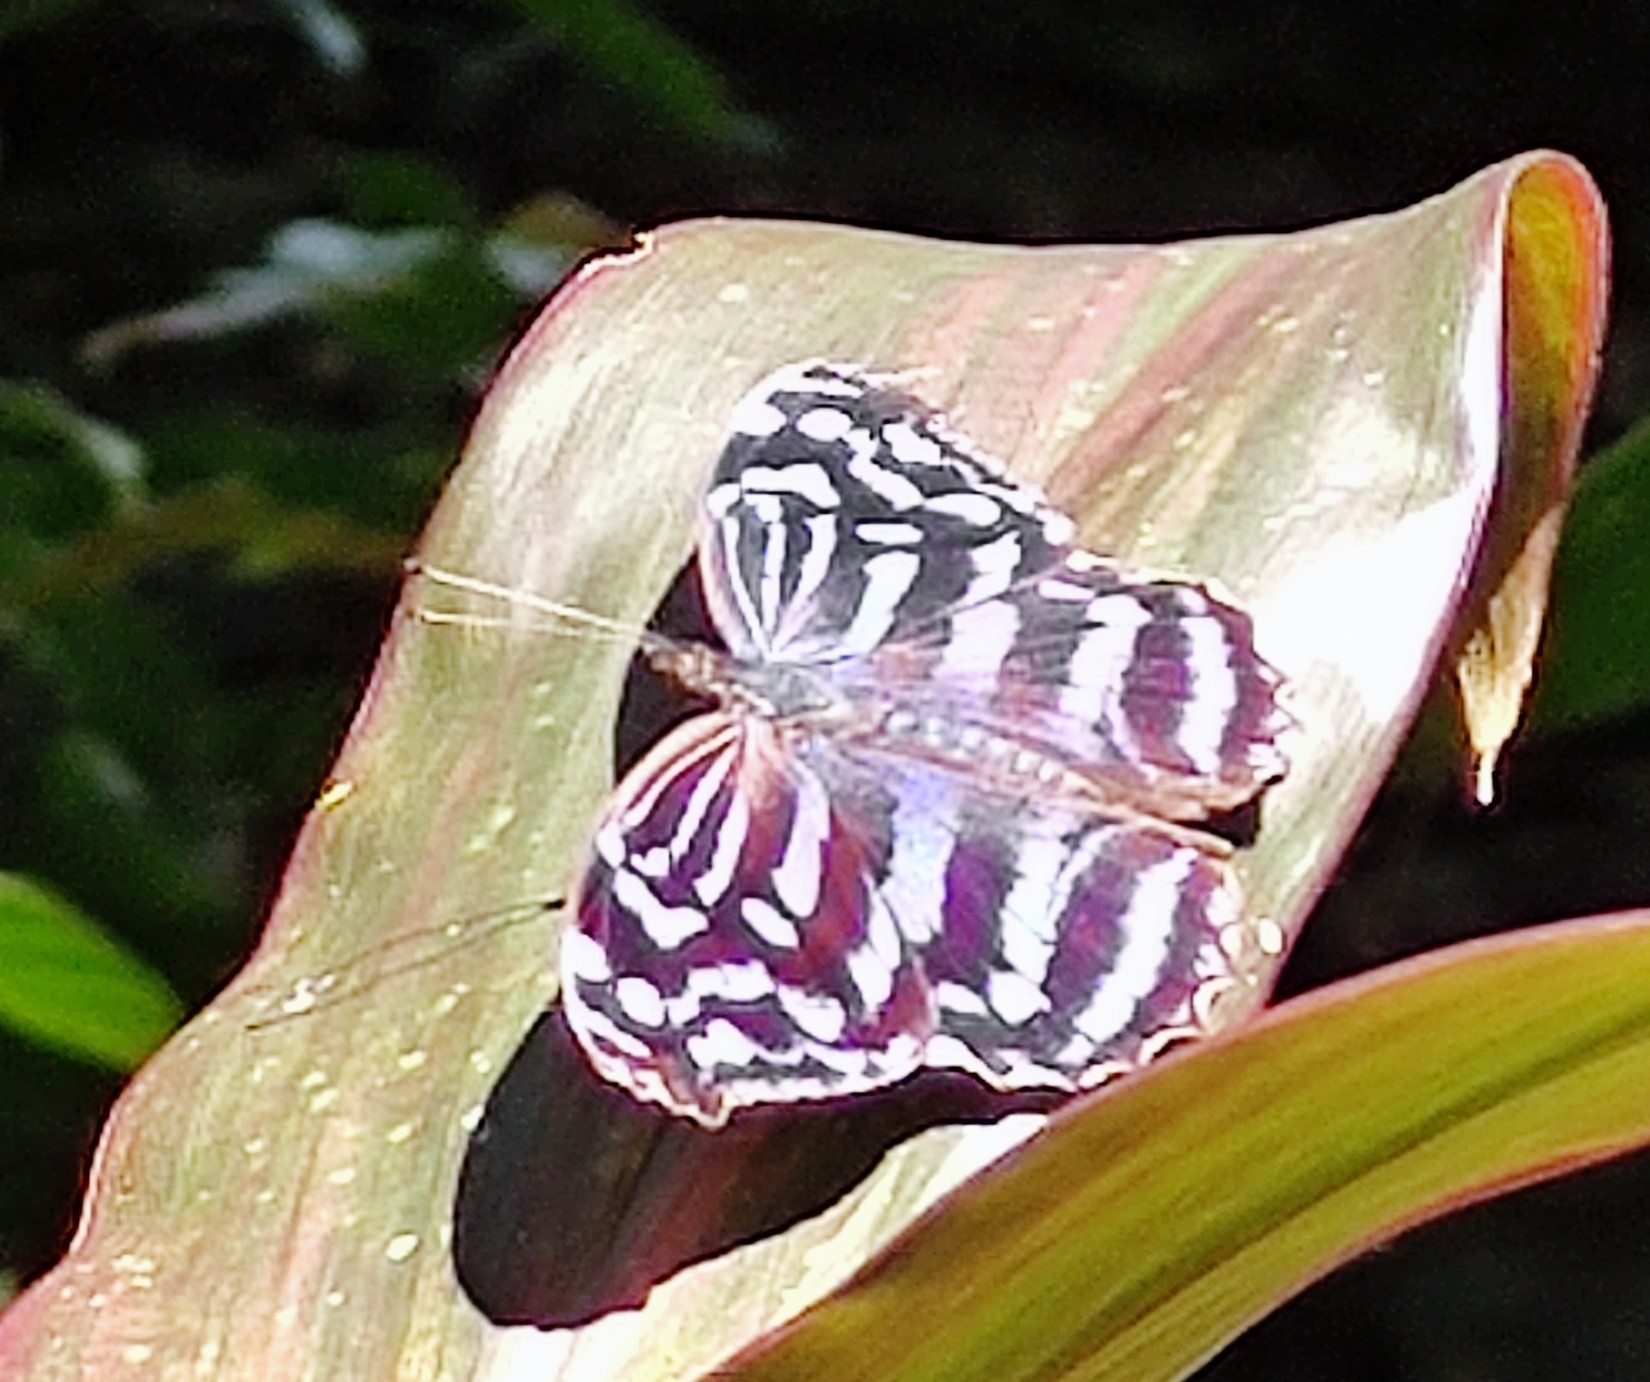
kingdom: Animalia
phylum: Arthropoda
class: Insecta
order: Lepidoptera
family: Nymphalidae
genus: Myscelia
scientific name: Myscelia cyaniris
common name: Whitened bluewing
